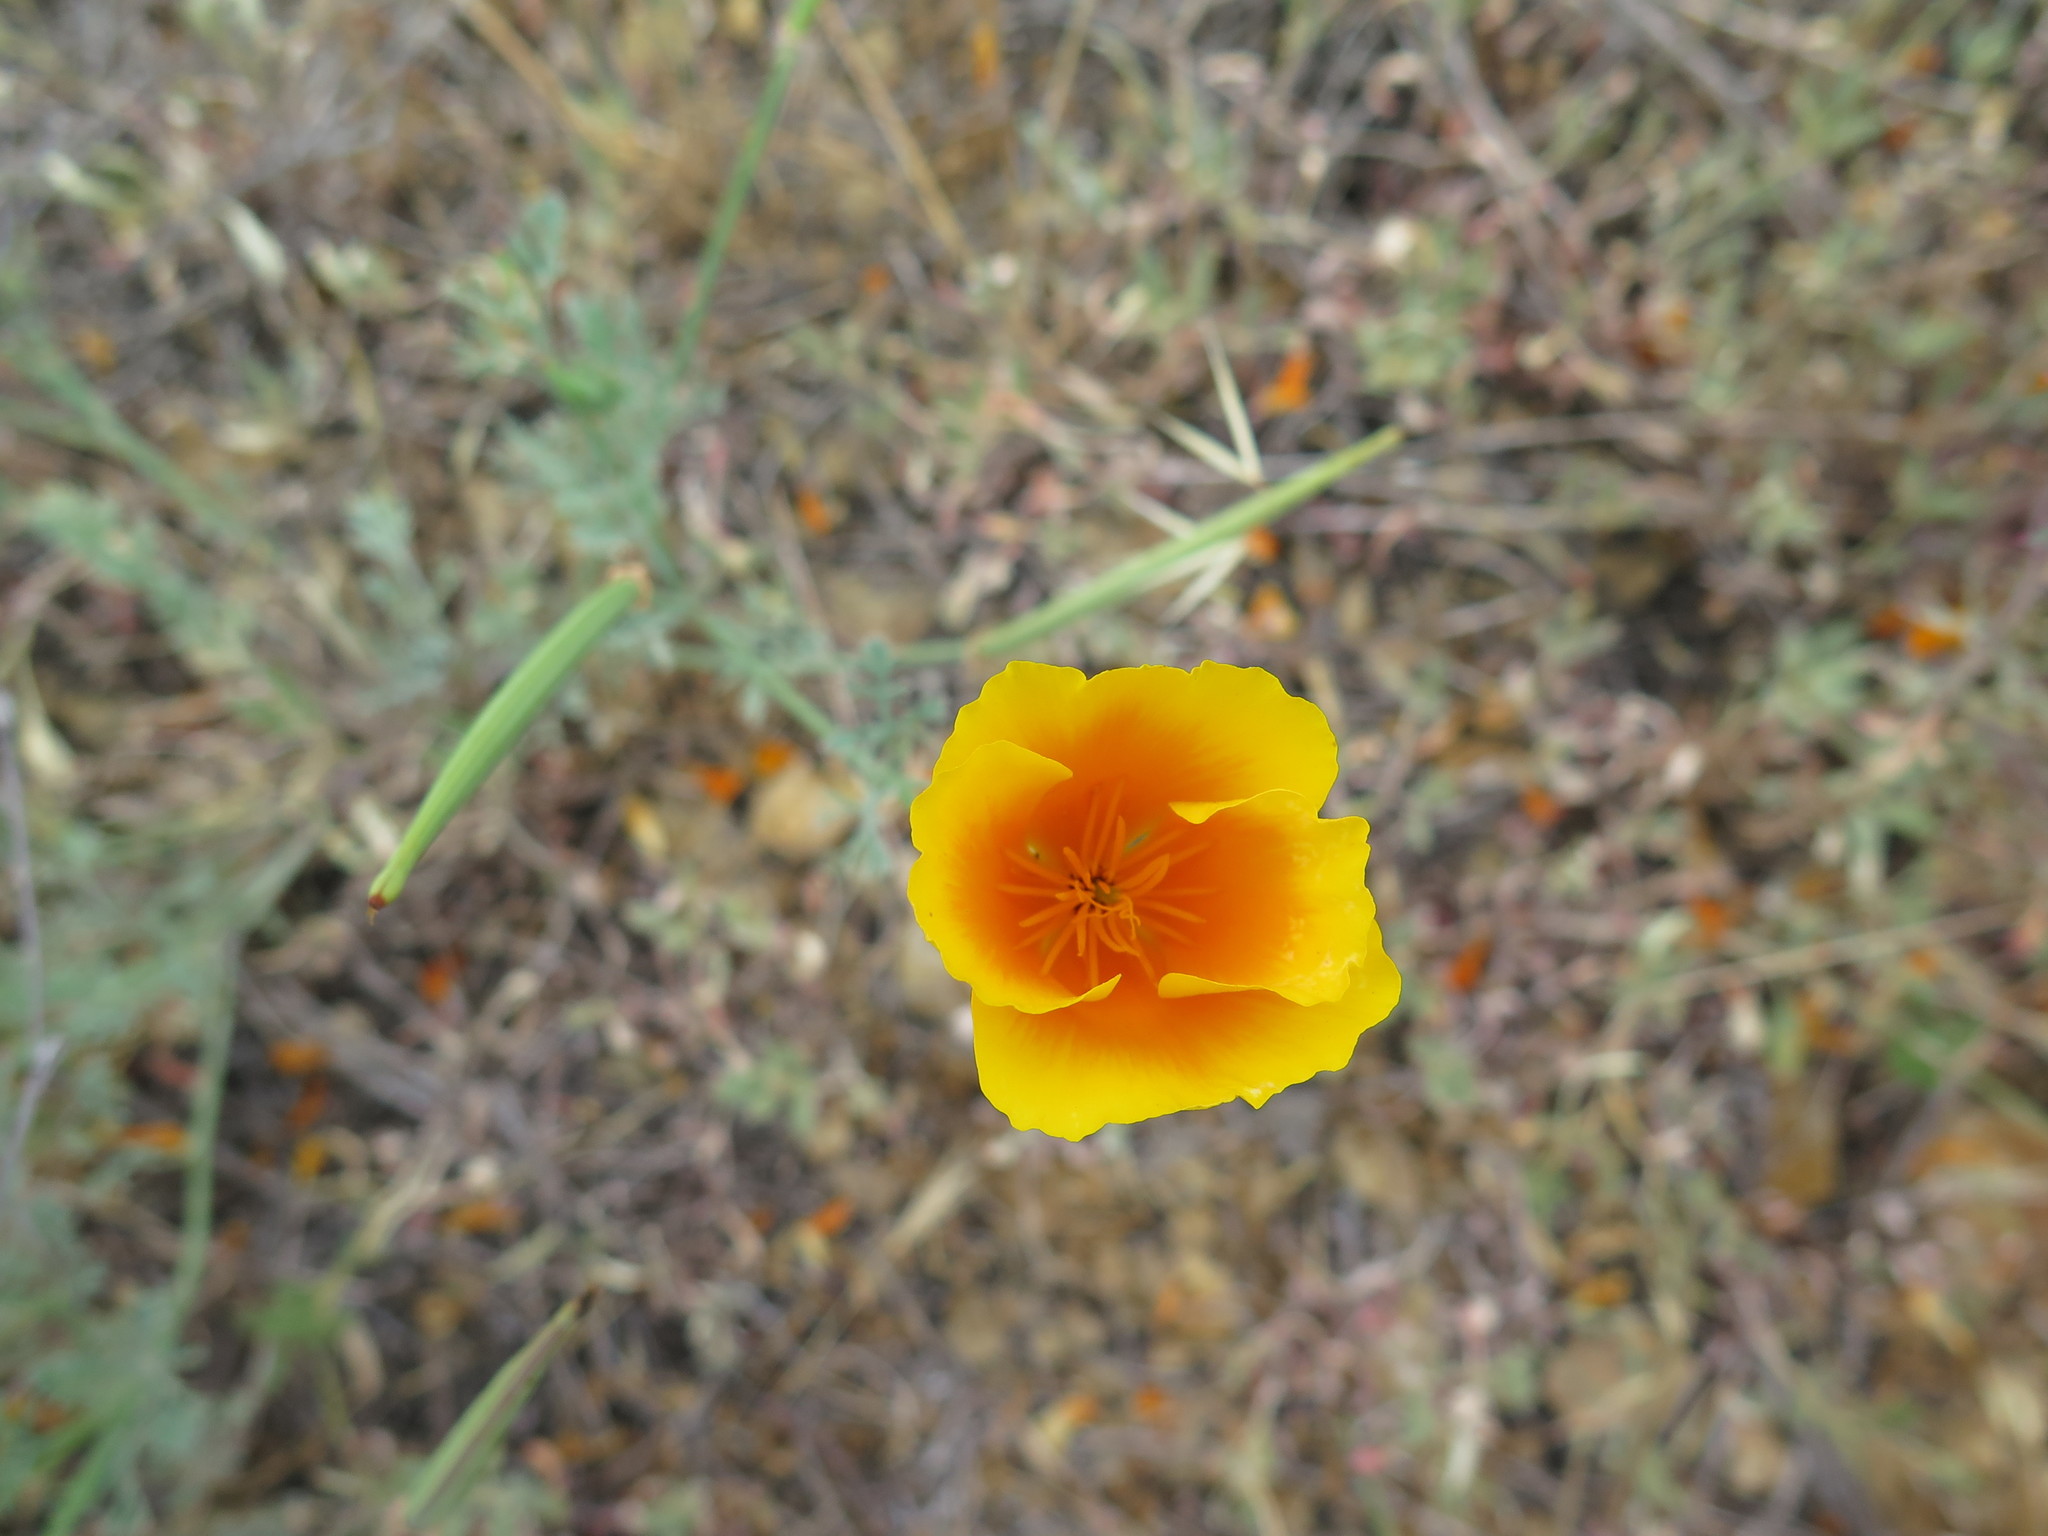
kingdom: Plantae
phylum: Tracheophyta
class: Magnoliopsida
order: Ranunculales
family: Papaveraceae
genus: Eschscholzia
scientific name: Eschscholzia californica
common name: California poppy
